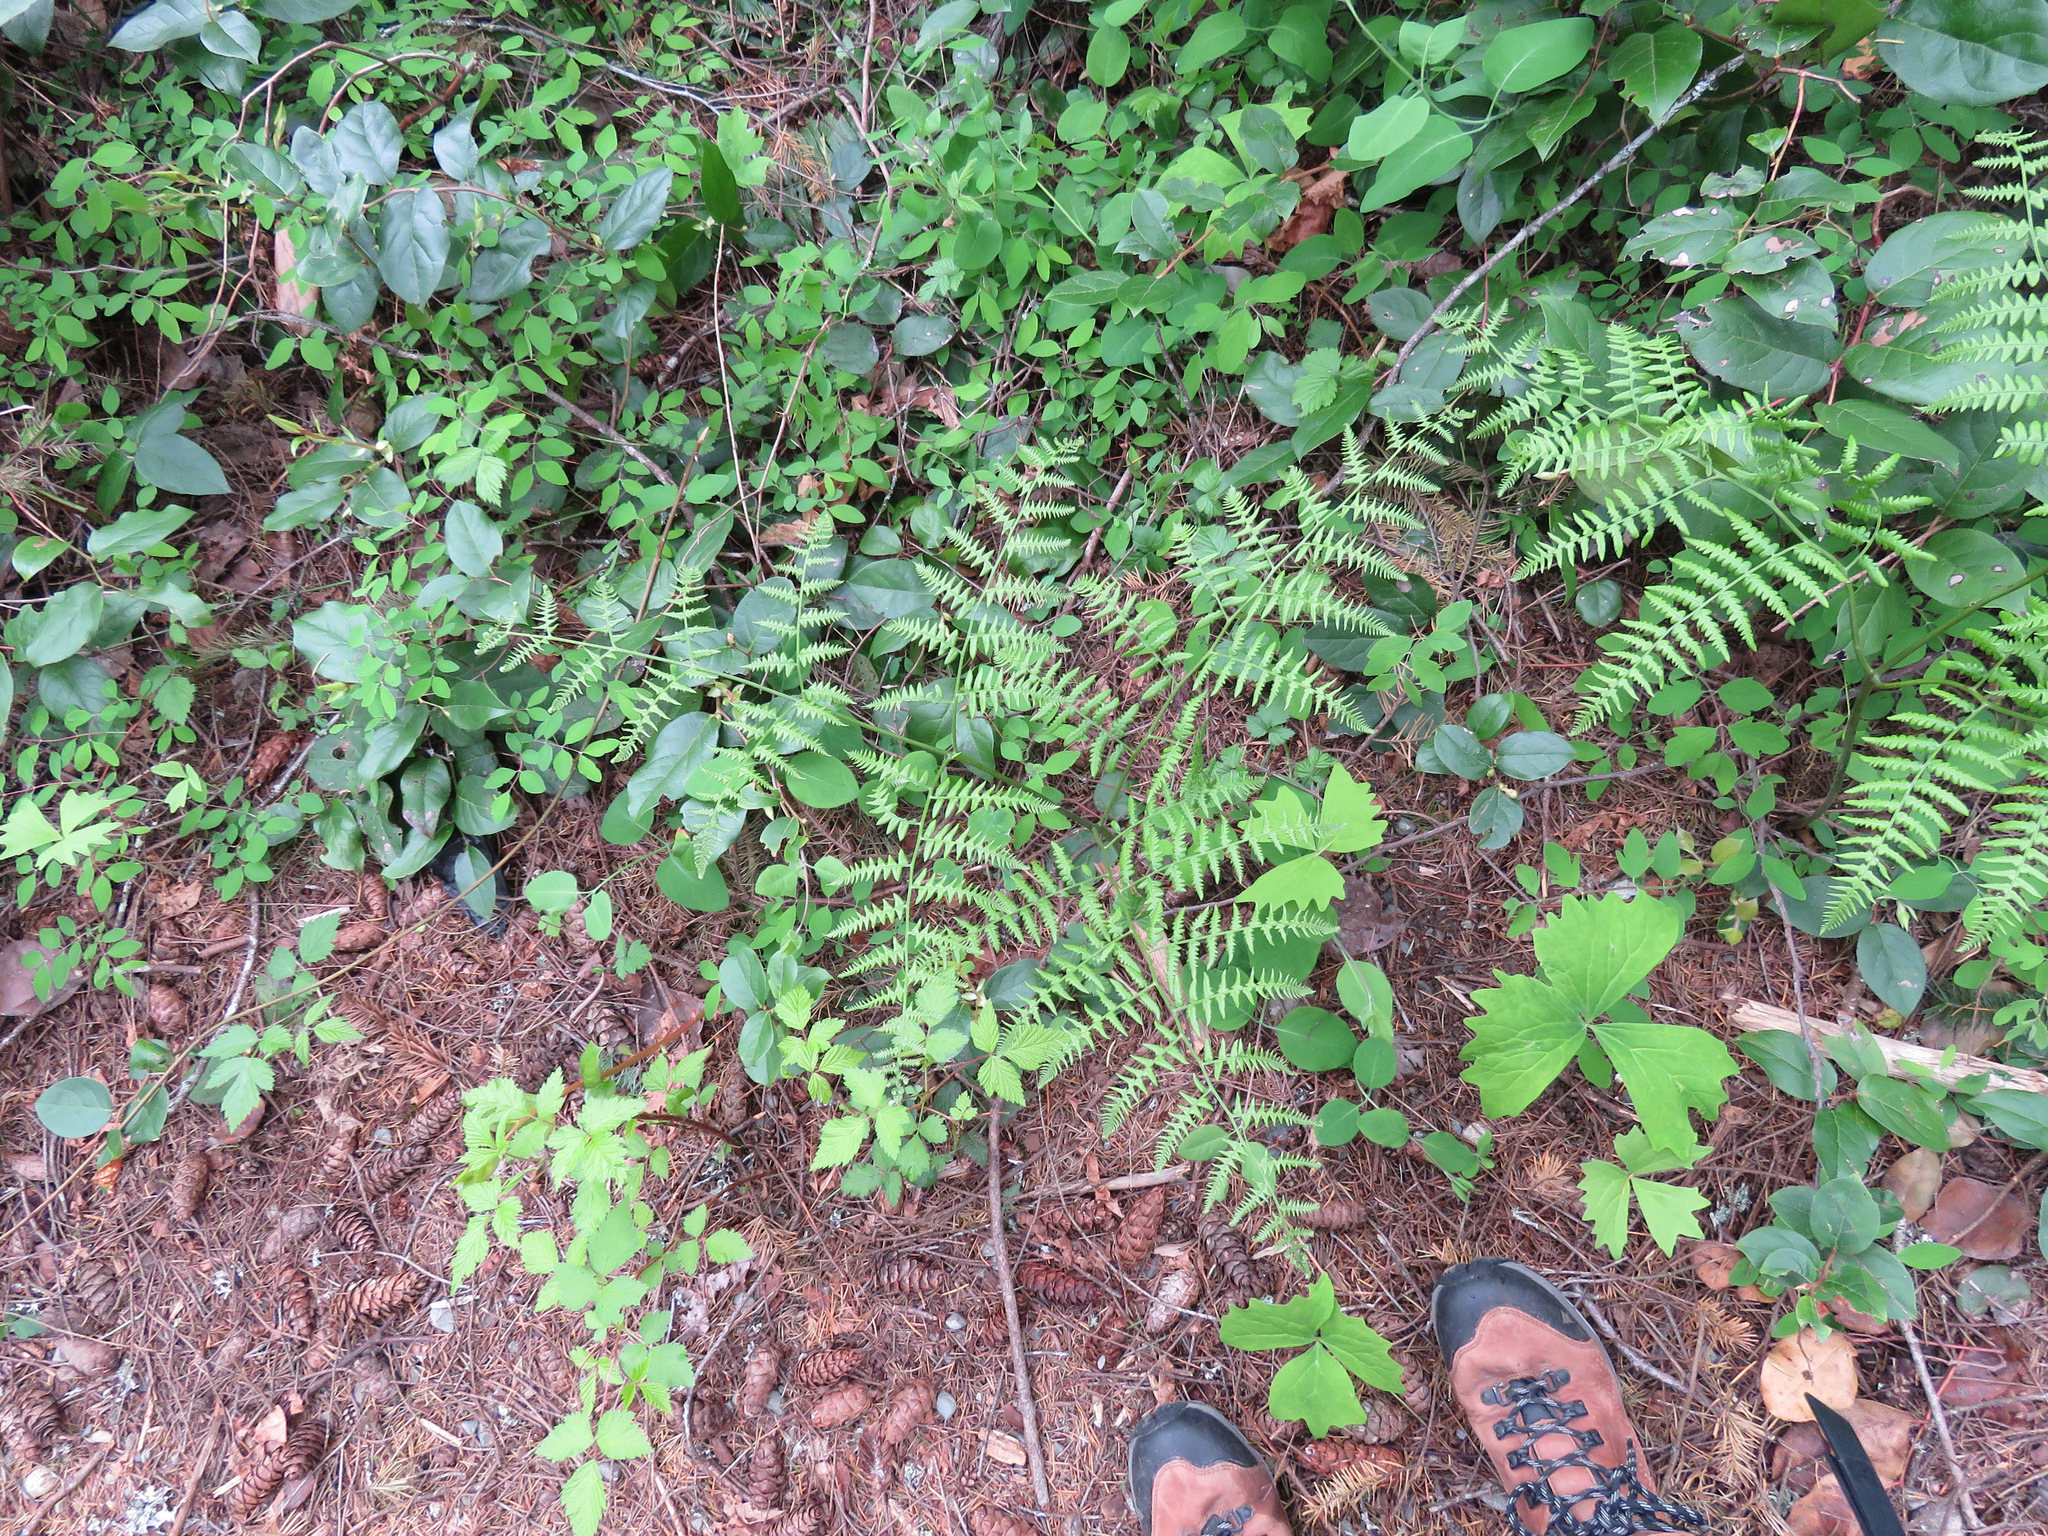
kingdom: Plantae
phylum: Tracheophyta
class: Polypodiopsida
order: Polypodiales
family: Dennstaedtiaceae
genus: Pteridium
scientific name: Pteridium aquilinum
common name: Bracken
